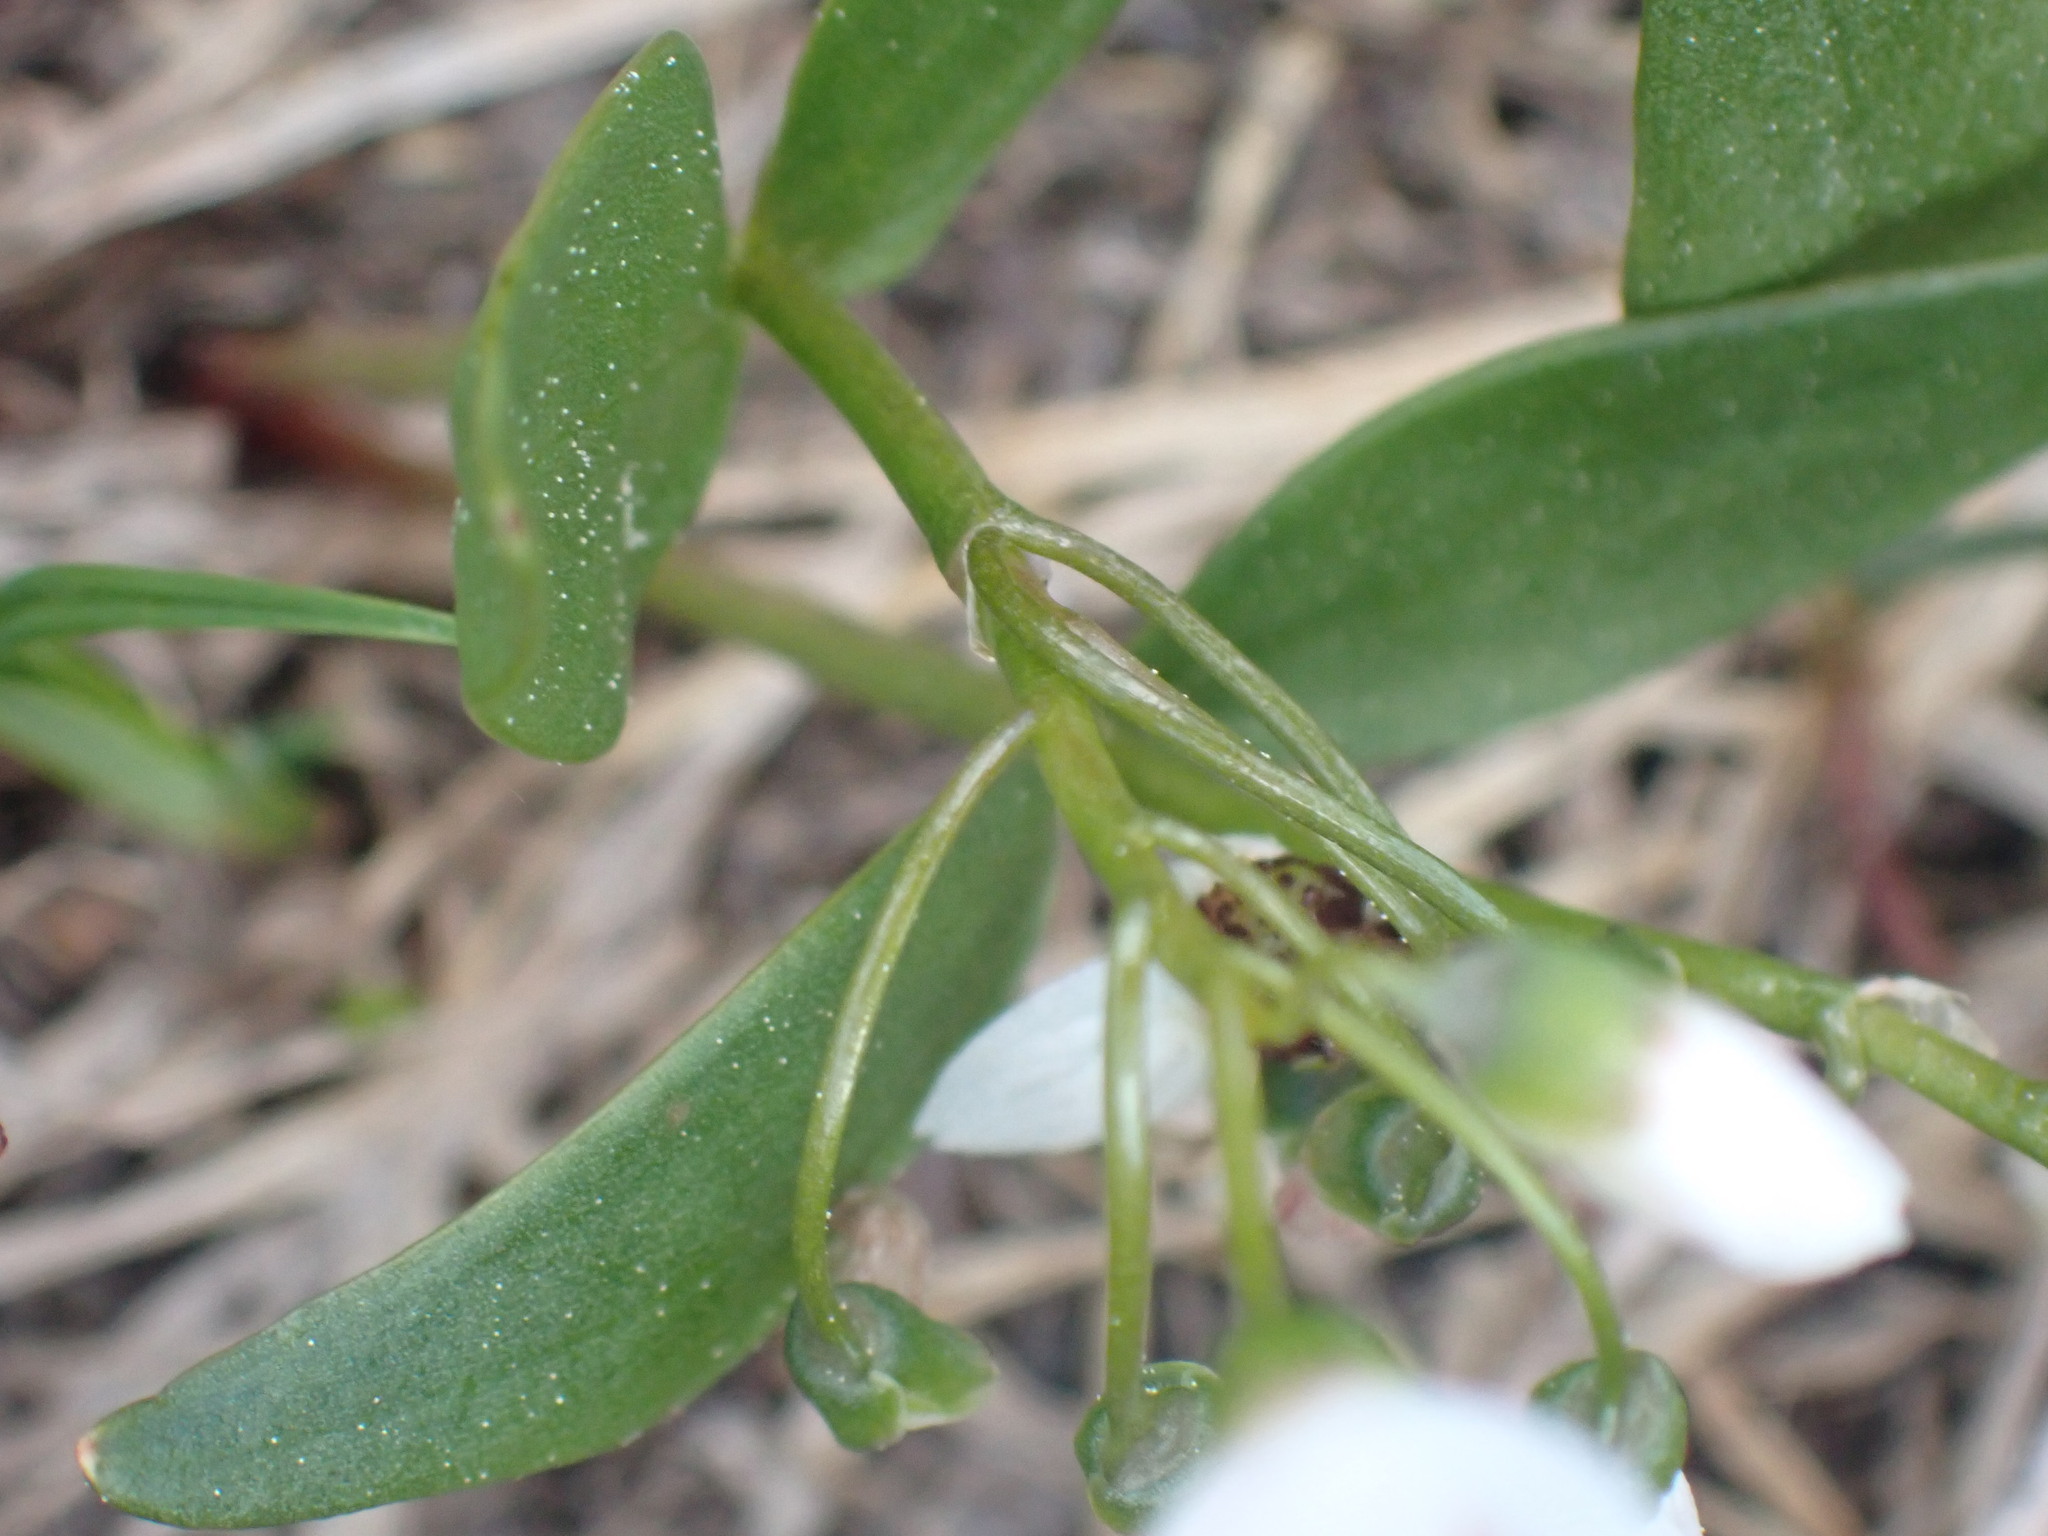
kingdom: Plantae
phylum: Tracheophyta
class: Magnoliopsida
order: Caryophyllales
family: Montiaceae
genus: Claytonia
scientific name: Claytonia lanceolata
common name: Western spring-beauty
